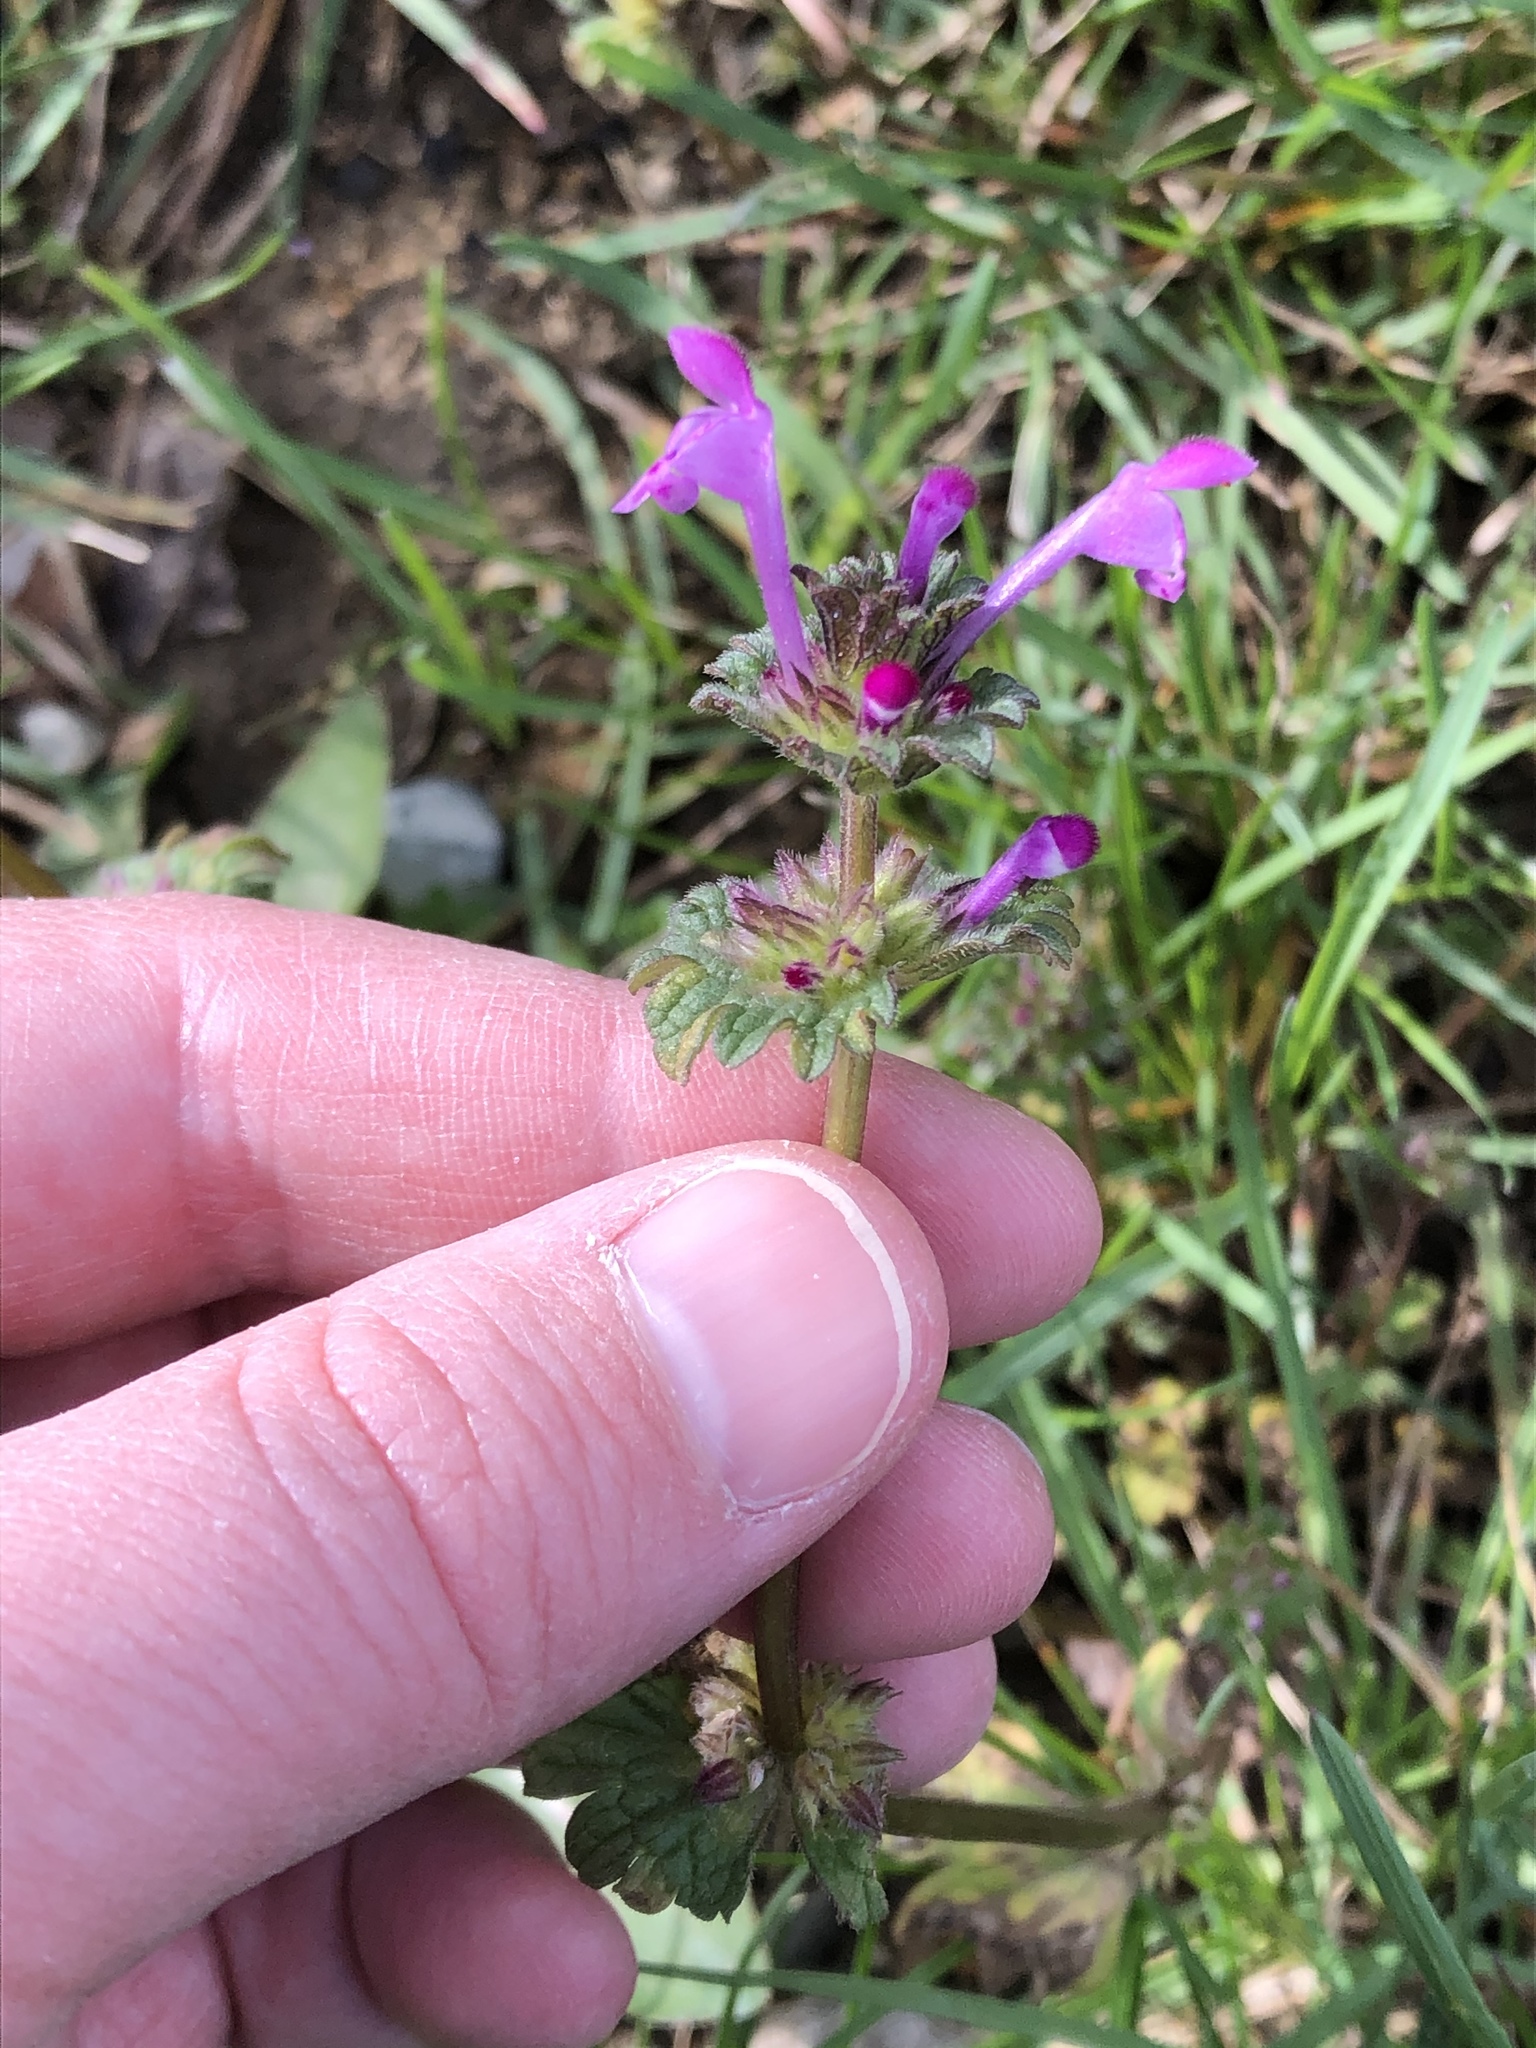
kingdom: Plantae
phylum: Tracheophyta
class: Magnoliopsida
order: Lamiales
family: Lamiaceae
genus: Lamium
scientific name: Lamium amplexicaule
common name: Henbit dead-nettle
